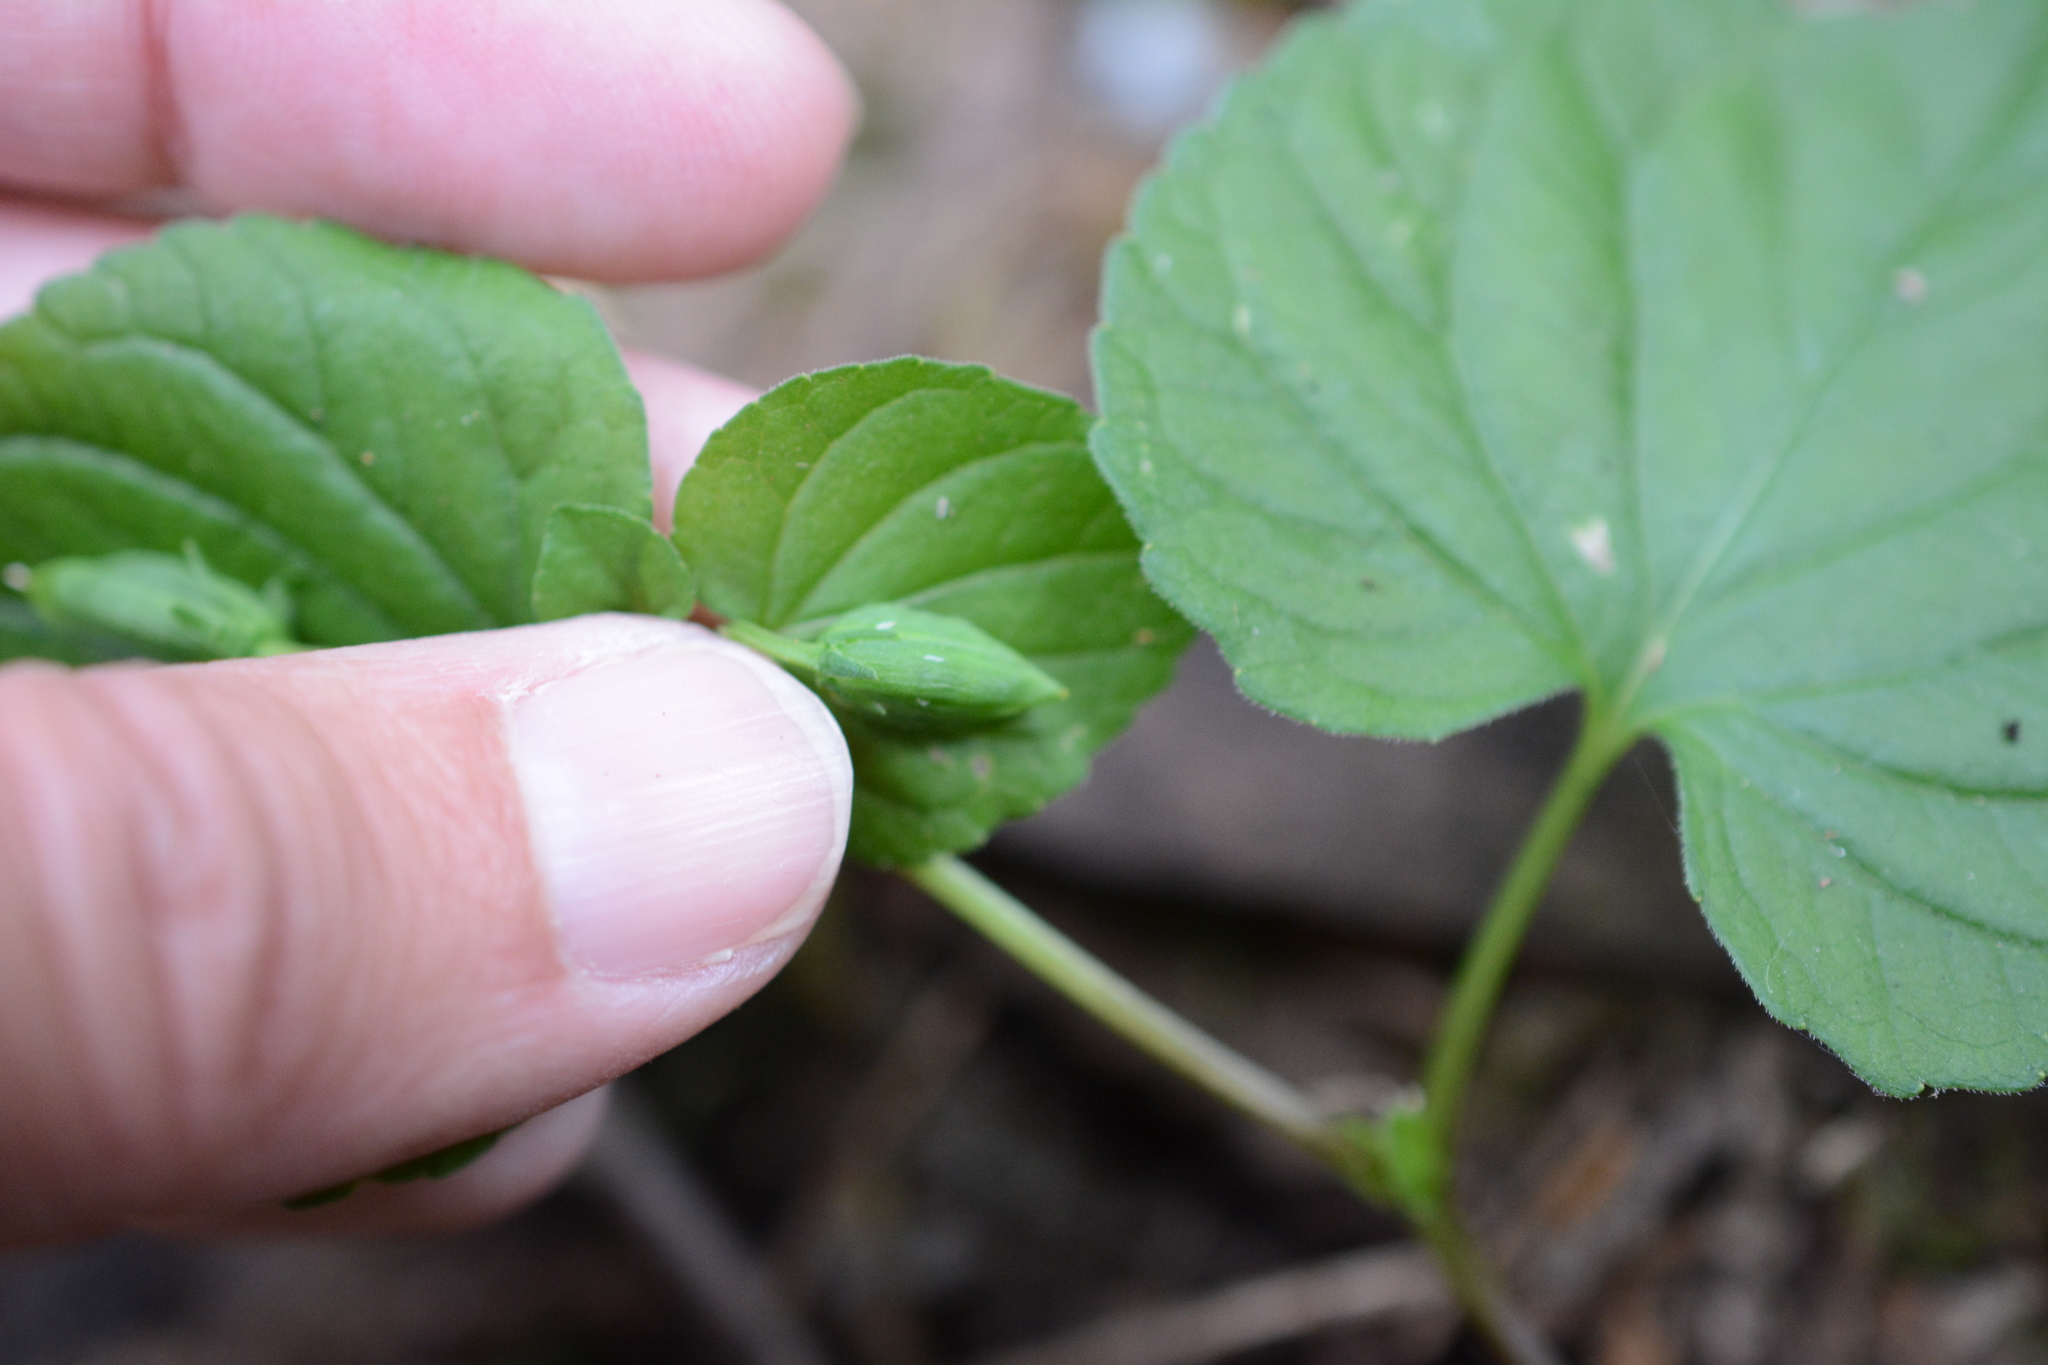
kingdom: Plantae
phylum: Tracheophyta
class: Magnoliopsida
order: Malpighiales
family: Violaceae
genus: Viola
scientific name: Viola glabella
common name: Stream violet
